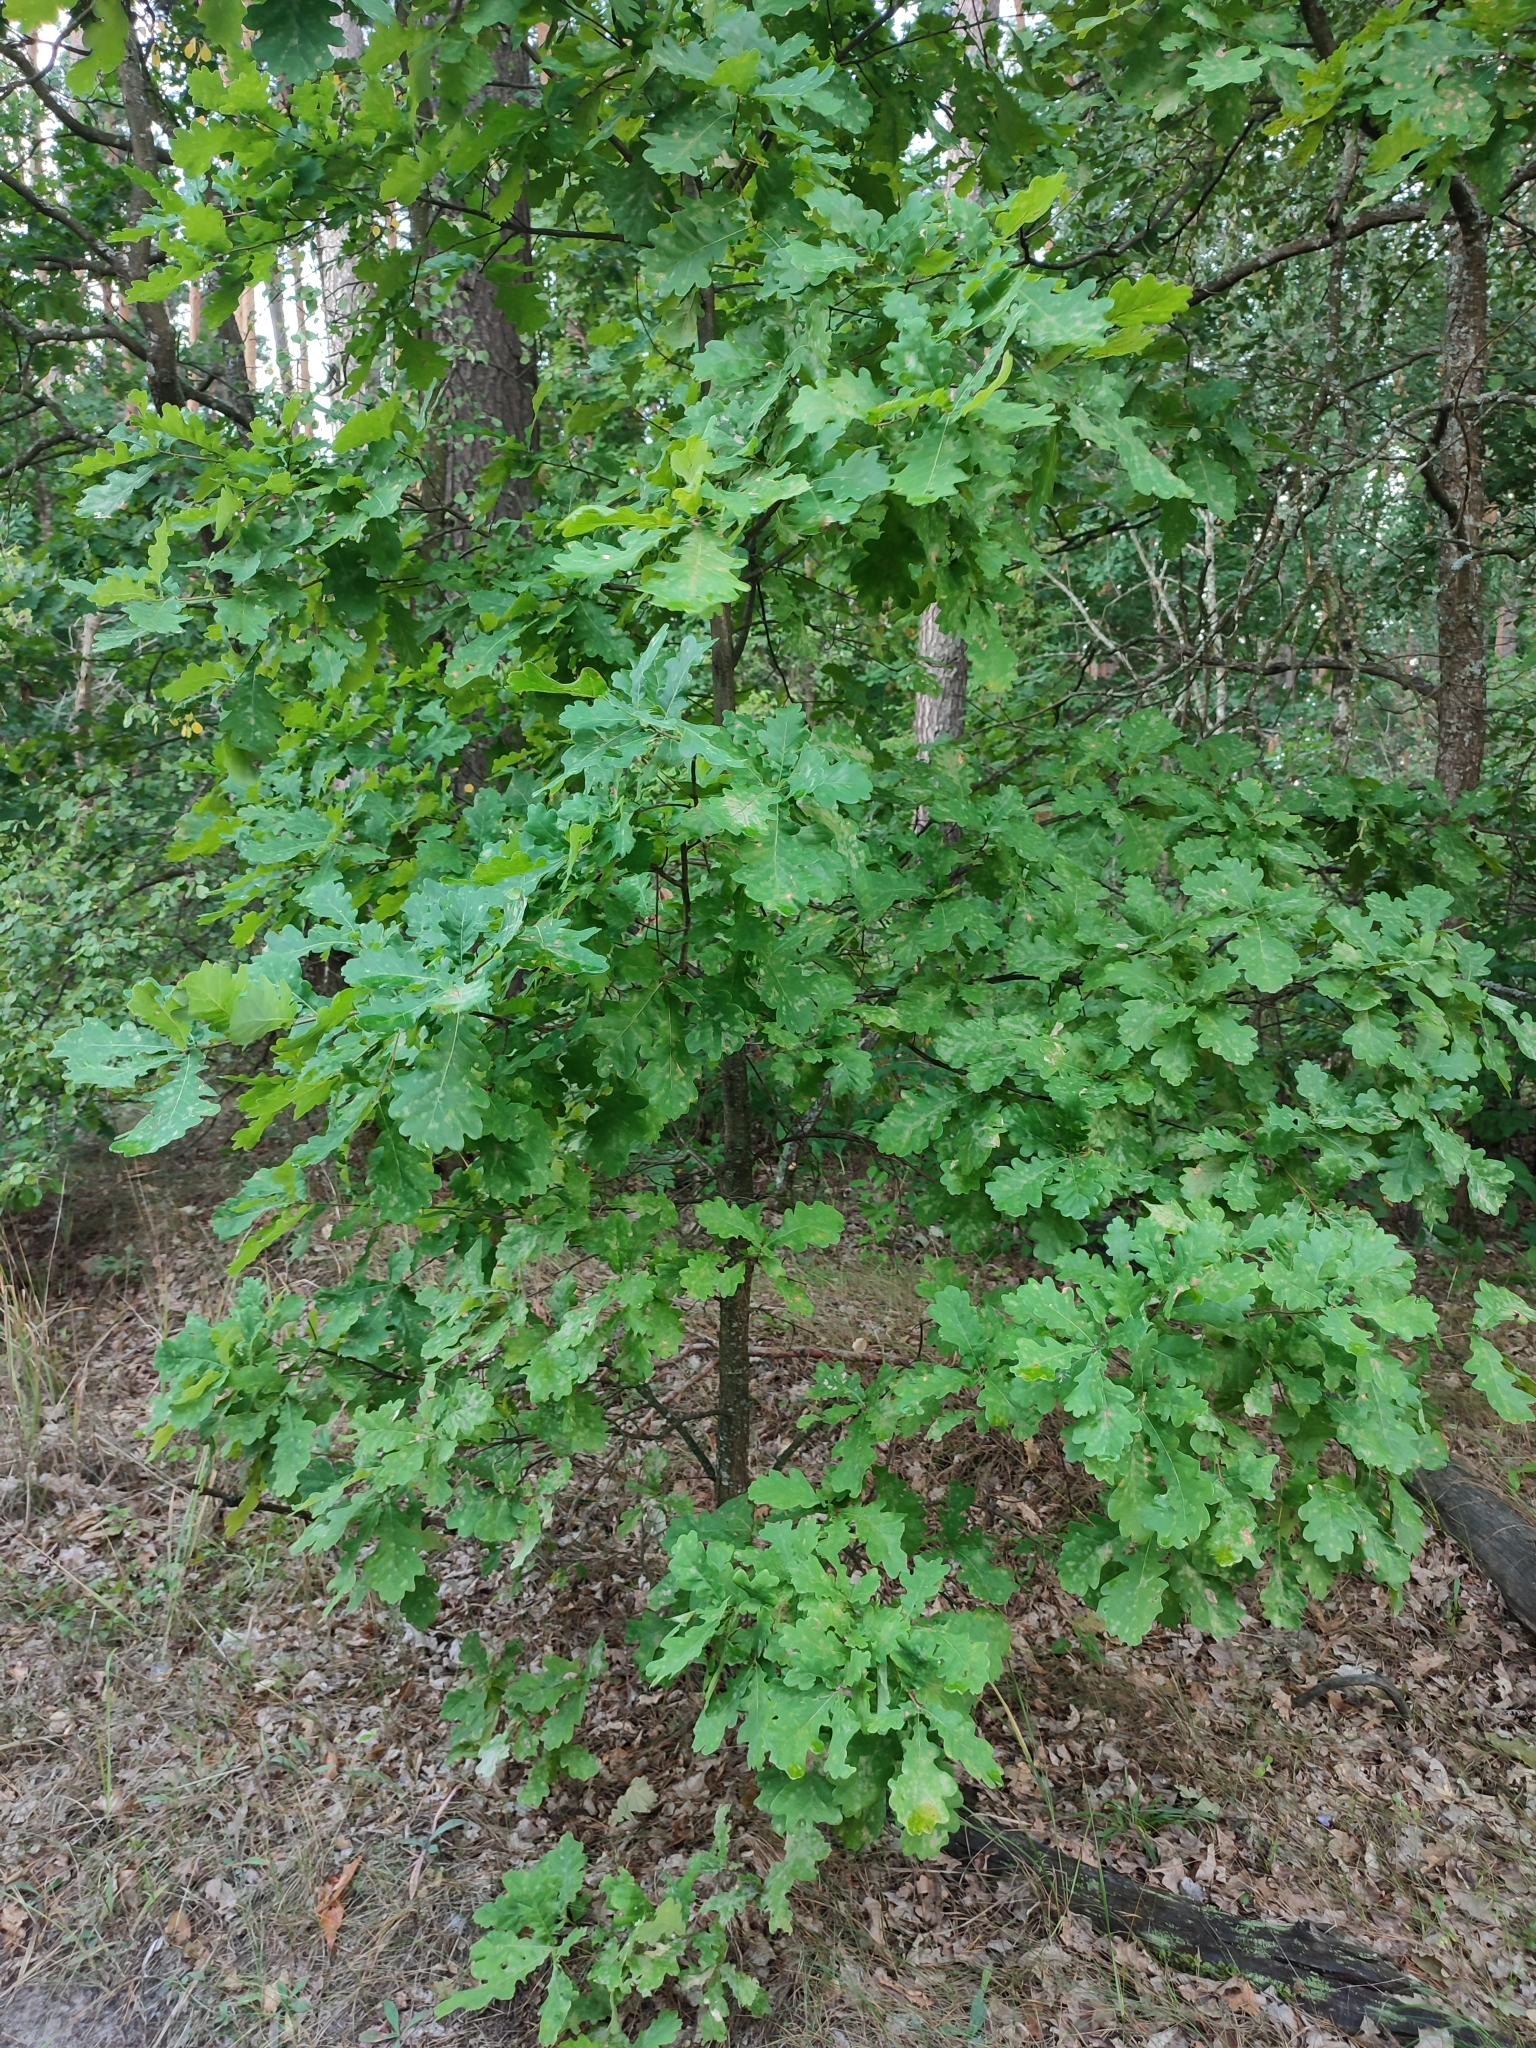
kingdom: Plantae
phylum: Tracheophyta
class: Magnoliopsida
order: Fagales
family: Fagaceae
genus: Quercus
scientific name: Quercus robur
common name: Pedunculate oak
